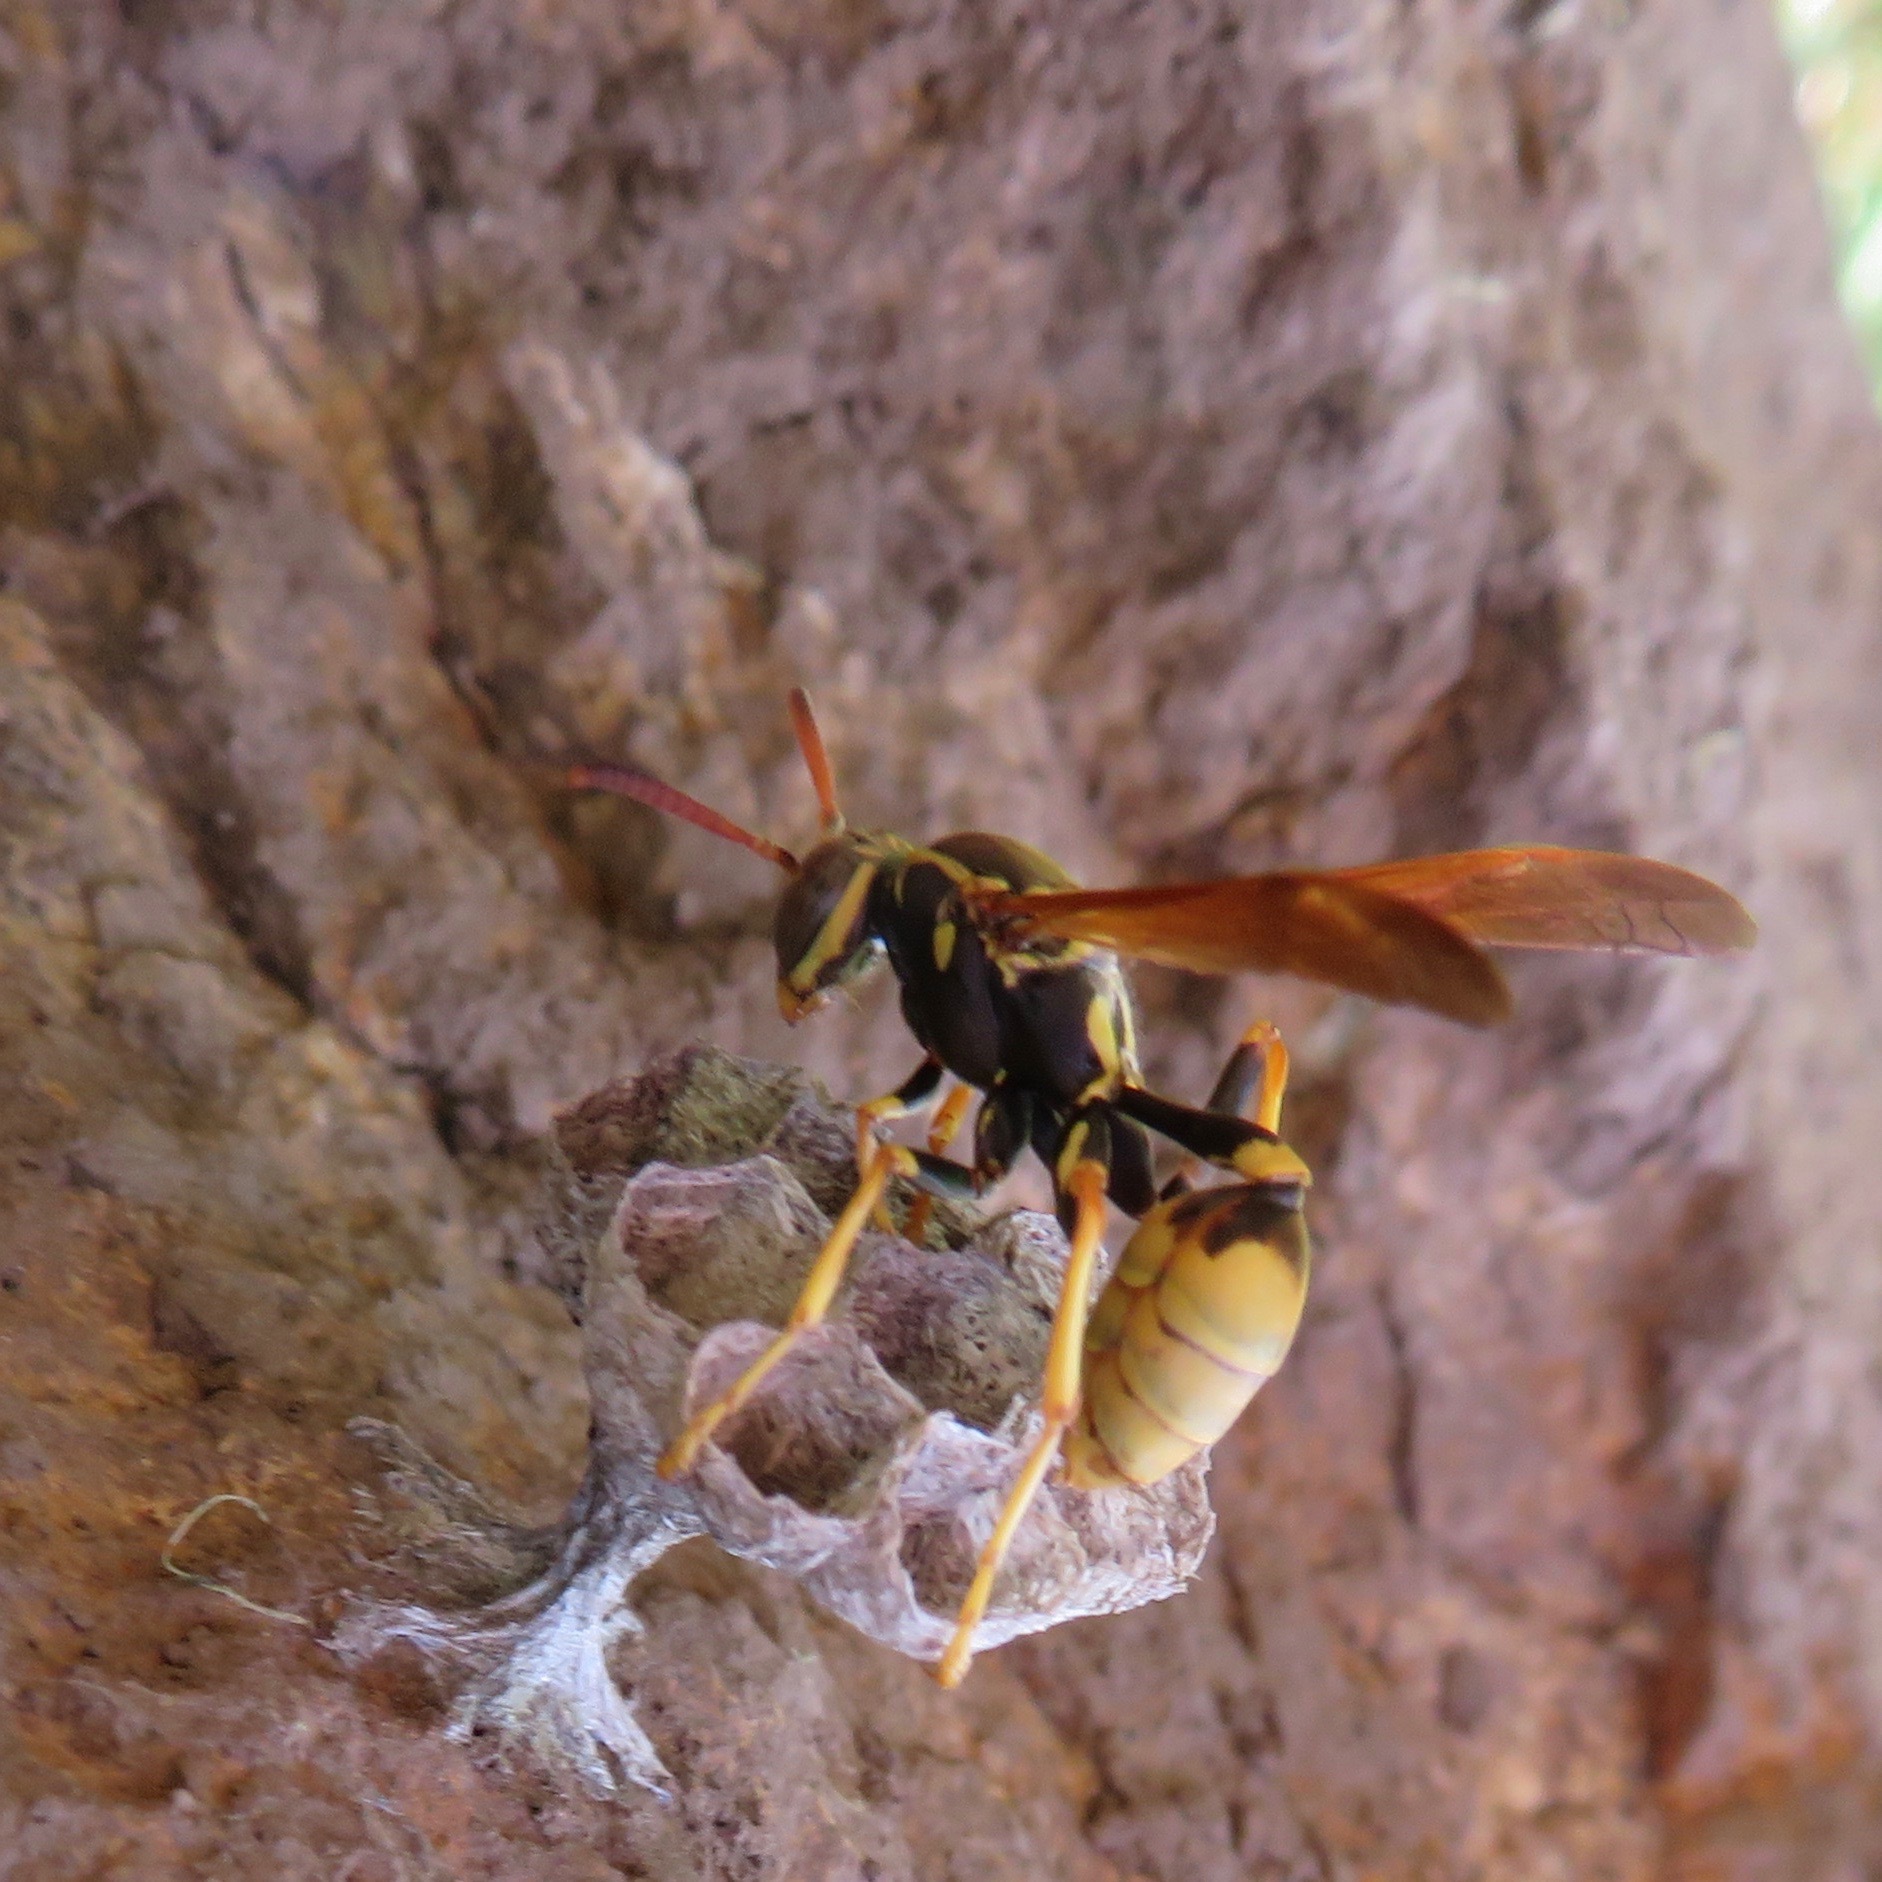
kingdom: Animalia
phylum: Arthropoda
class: Insecta
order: Hymenoptera
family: Vespidae
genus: Mischocyttarus
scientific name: Mischocyttarus flavitarsis
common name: Wasp
